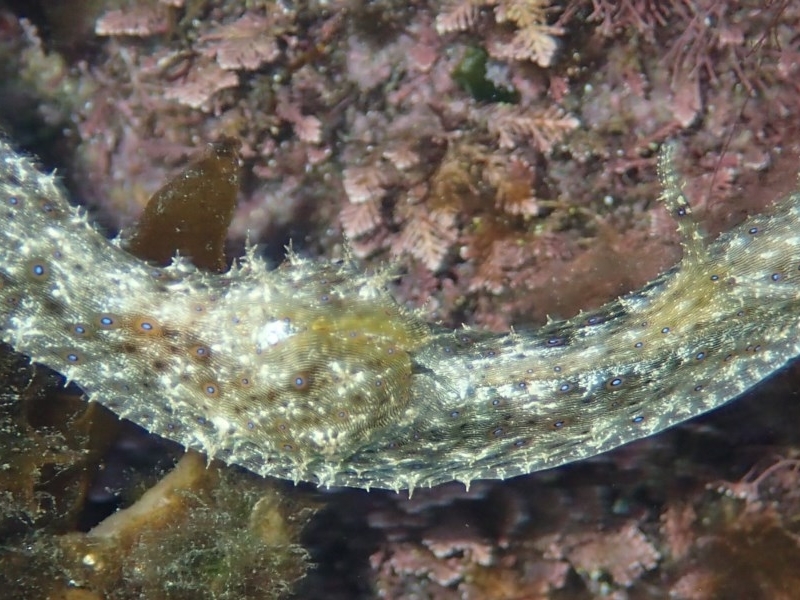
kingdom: Animalia
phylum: Mollusca
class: Gastropoda
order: Aplysiida
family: Aplysiidae
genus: Stylocheilus
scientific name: Stylocheilus striatus
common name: Striated seahare
